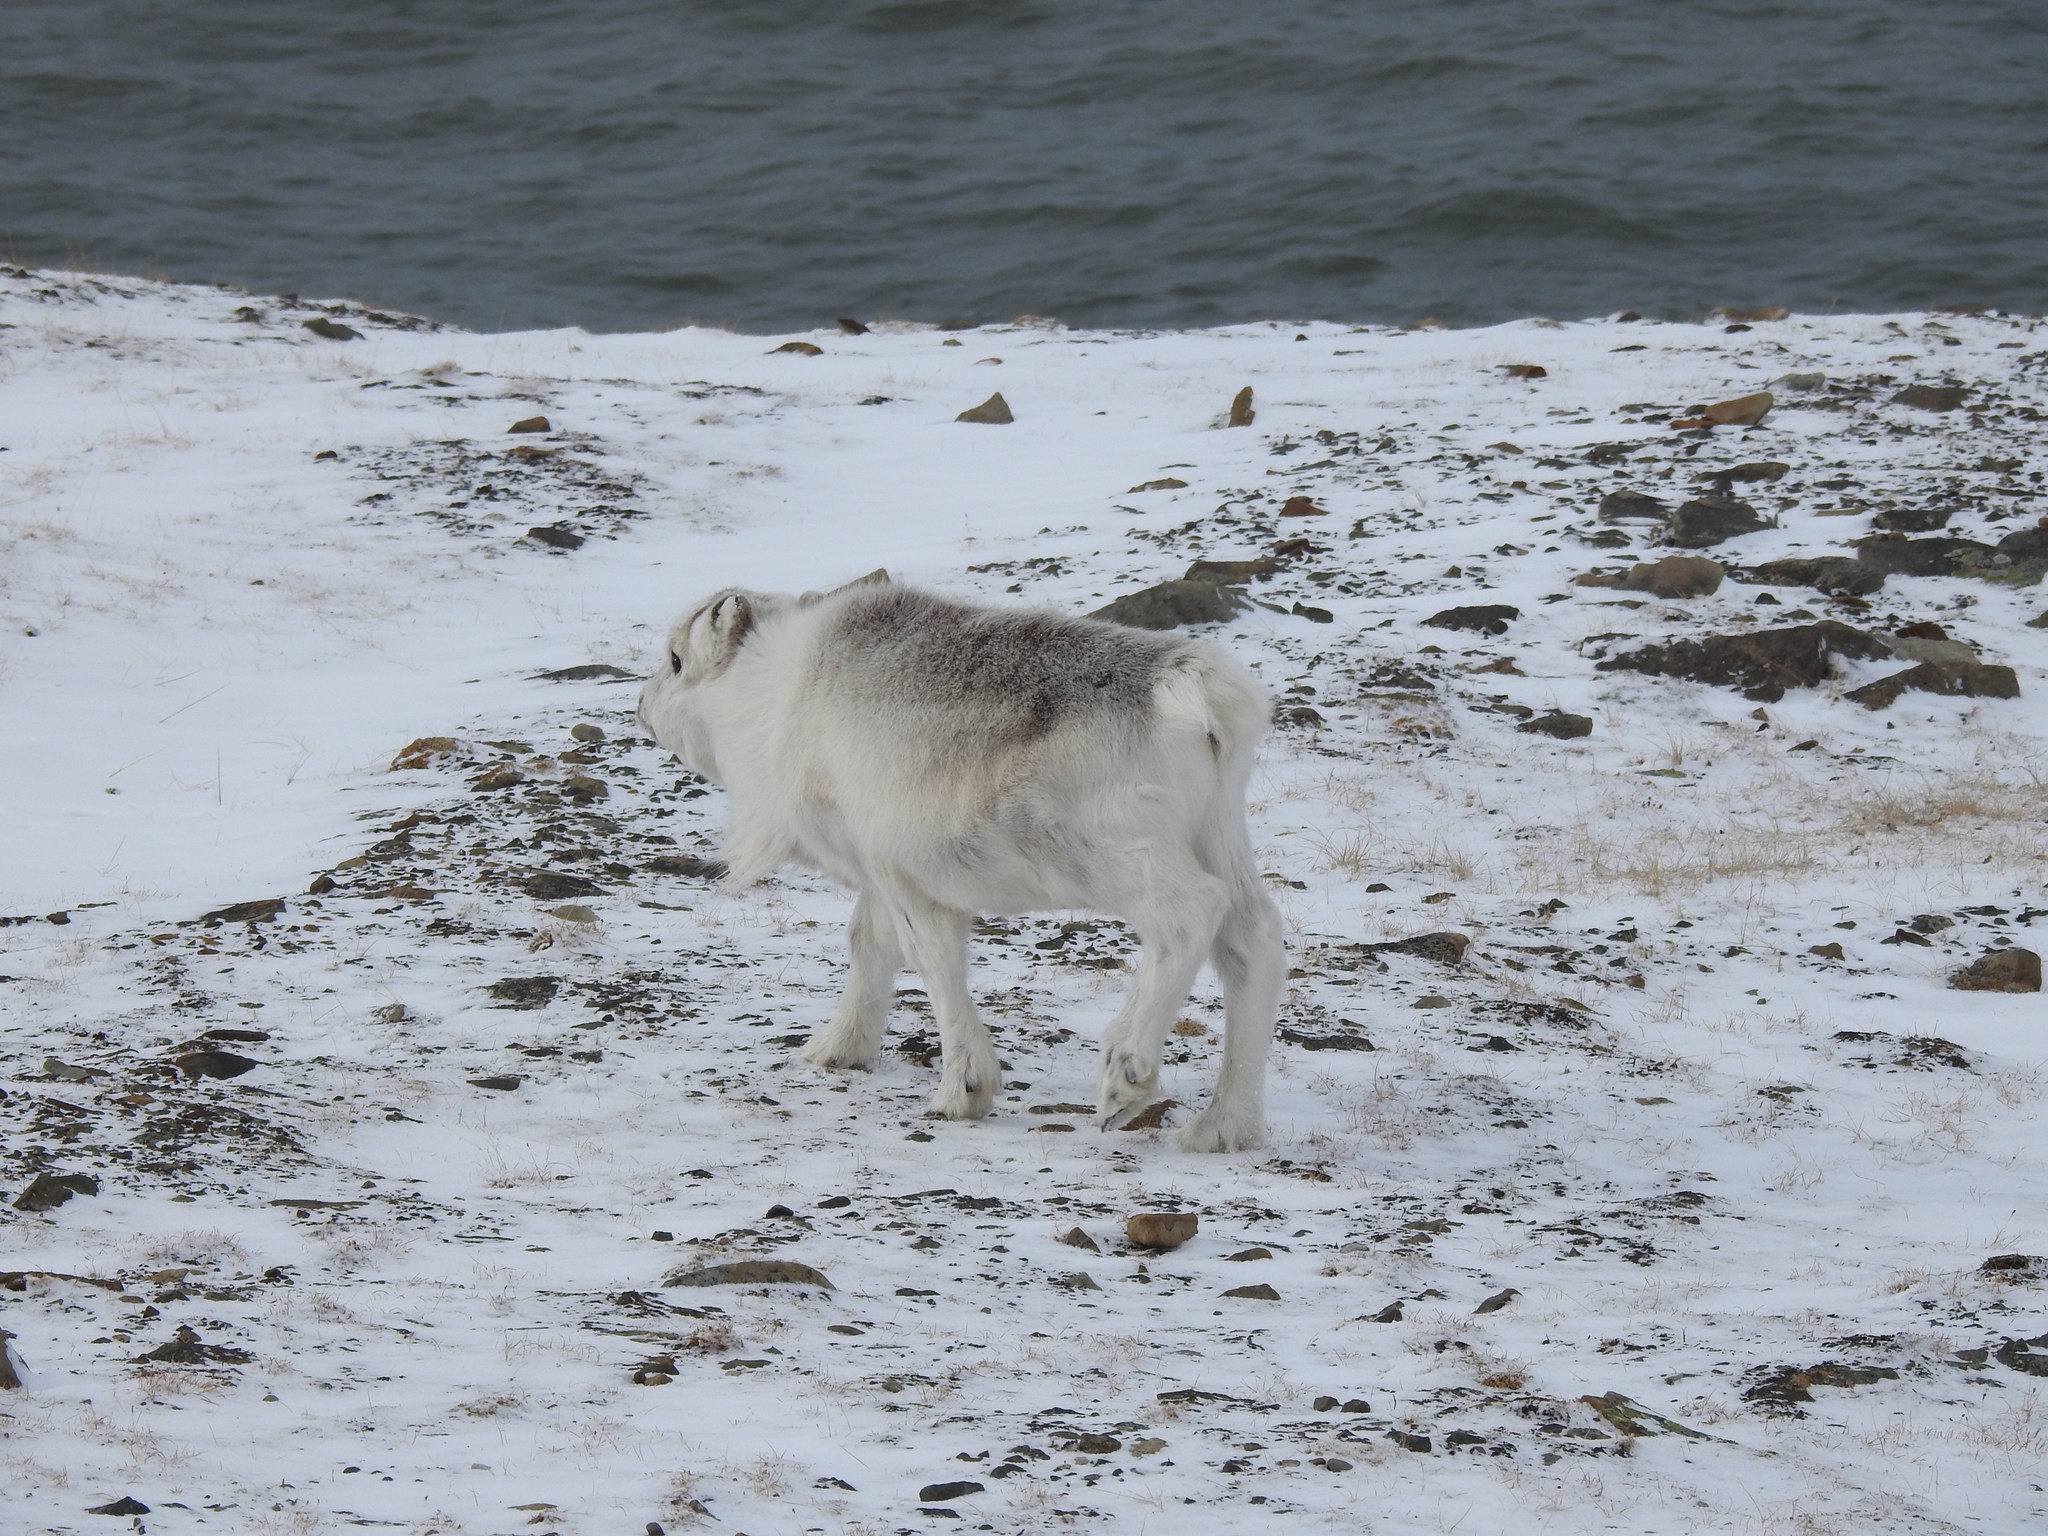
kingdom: Animalia
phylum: Chordata
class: Mammalia
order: Artiodactyla
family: Cervidae
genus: Rangifer
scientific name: Rangifer tarandus
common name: Reindeer
